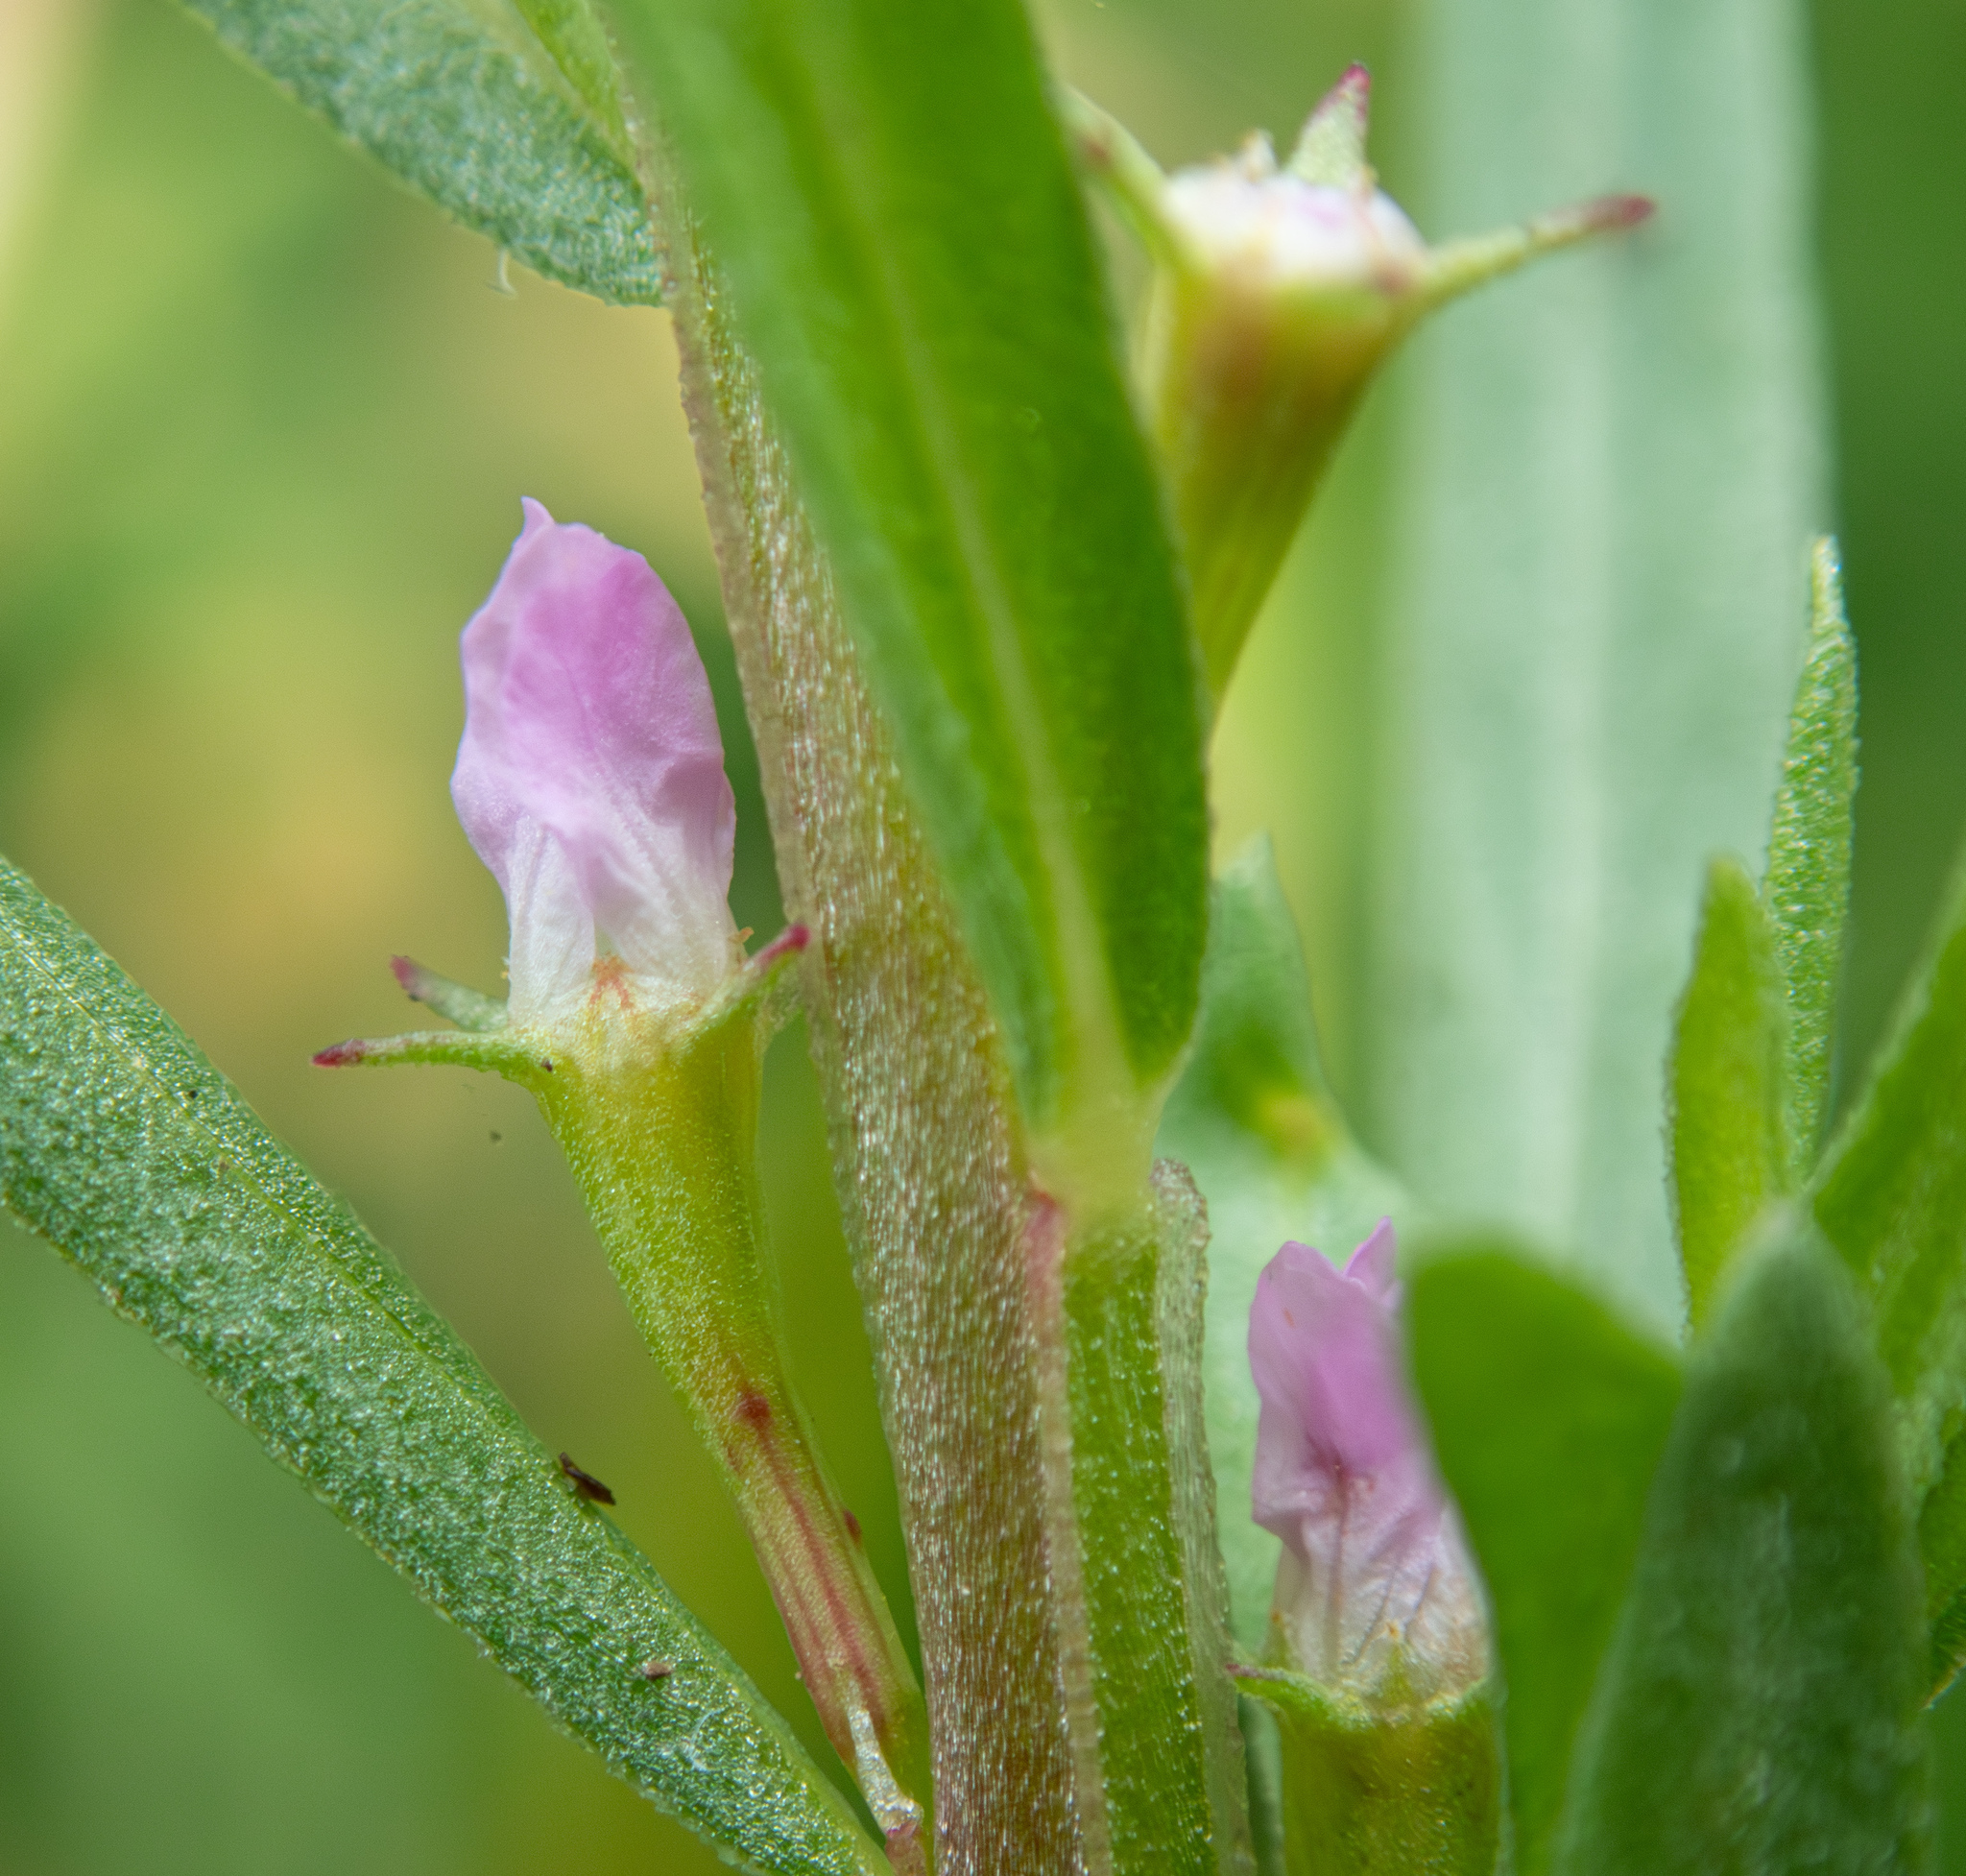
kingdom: Plantae
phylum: Tracheophyta
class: Magnoliopsida
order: Myrtales
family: Lythraceae
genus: Lythrum
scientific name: Lythrum hyssopifolia
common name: Grass-poly
